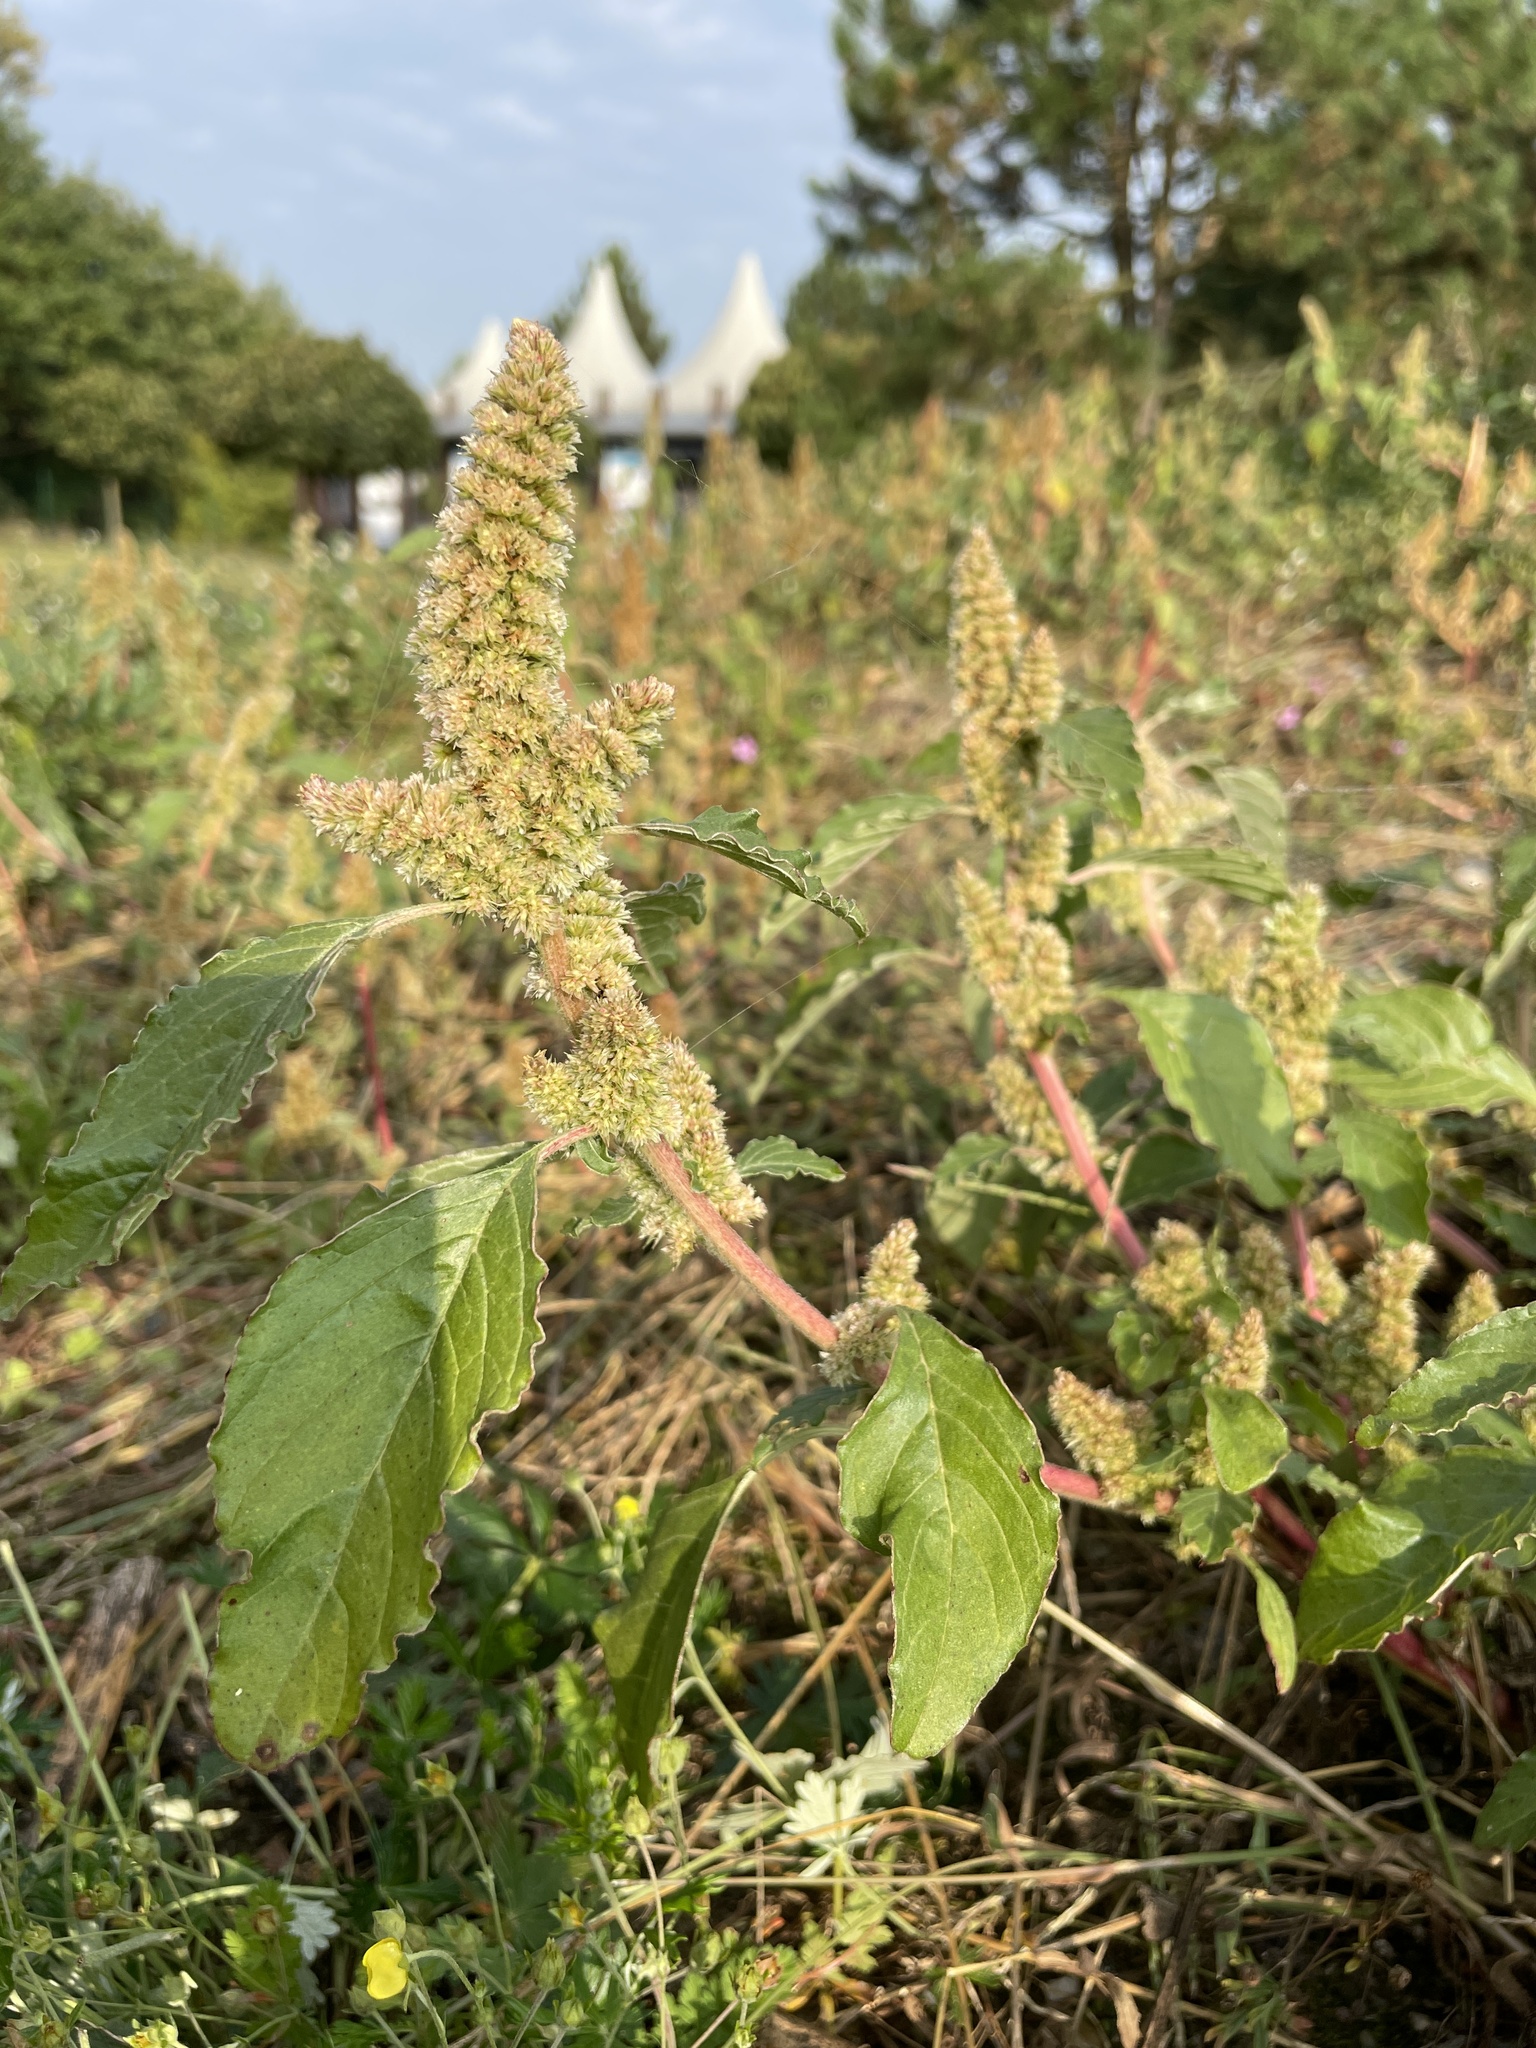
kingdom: Plantae
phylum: Tracheophyta
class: Magnoliopsida
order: Caryophyllales
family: Amaranthaceae
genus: Amaranthus
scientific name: Amaranthus retroflexus
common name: Redroot amaranth
